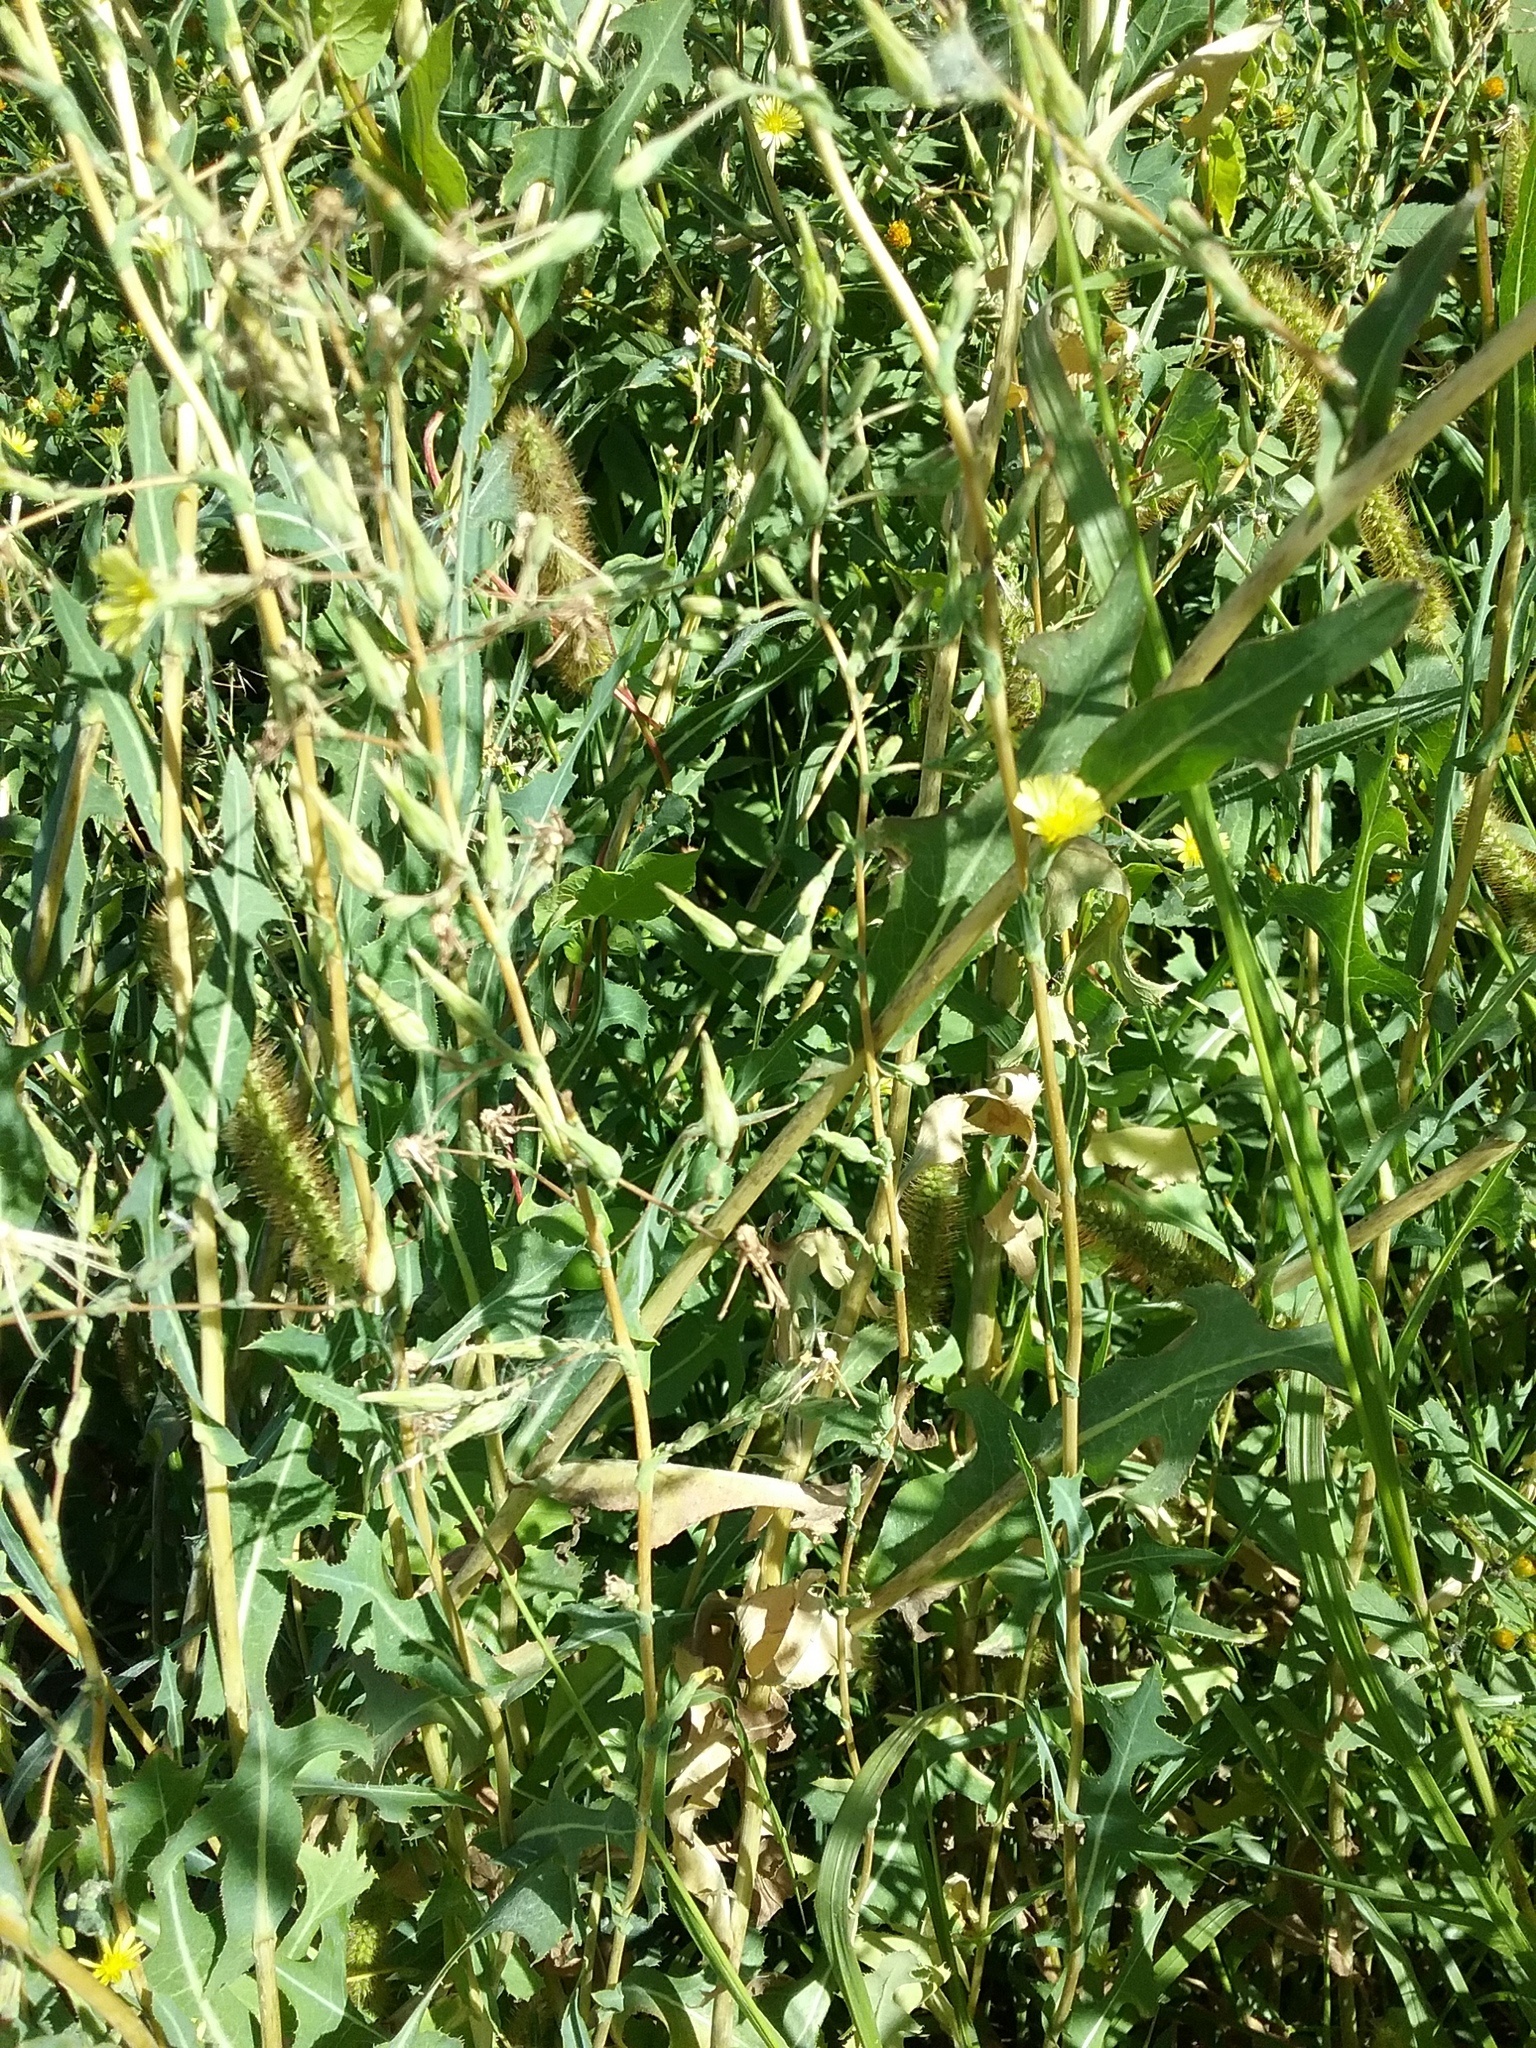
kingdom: Plantae
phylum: Tracheophyta
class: Magnoliopsida
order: Asterales
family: Asteraceae
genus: Lactuca
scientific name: Lactuca serriola
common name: Prickly lettuce
